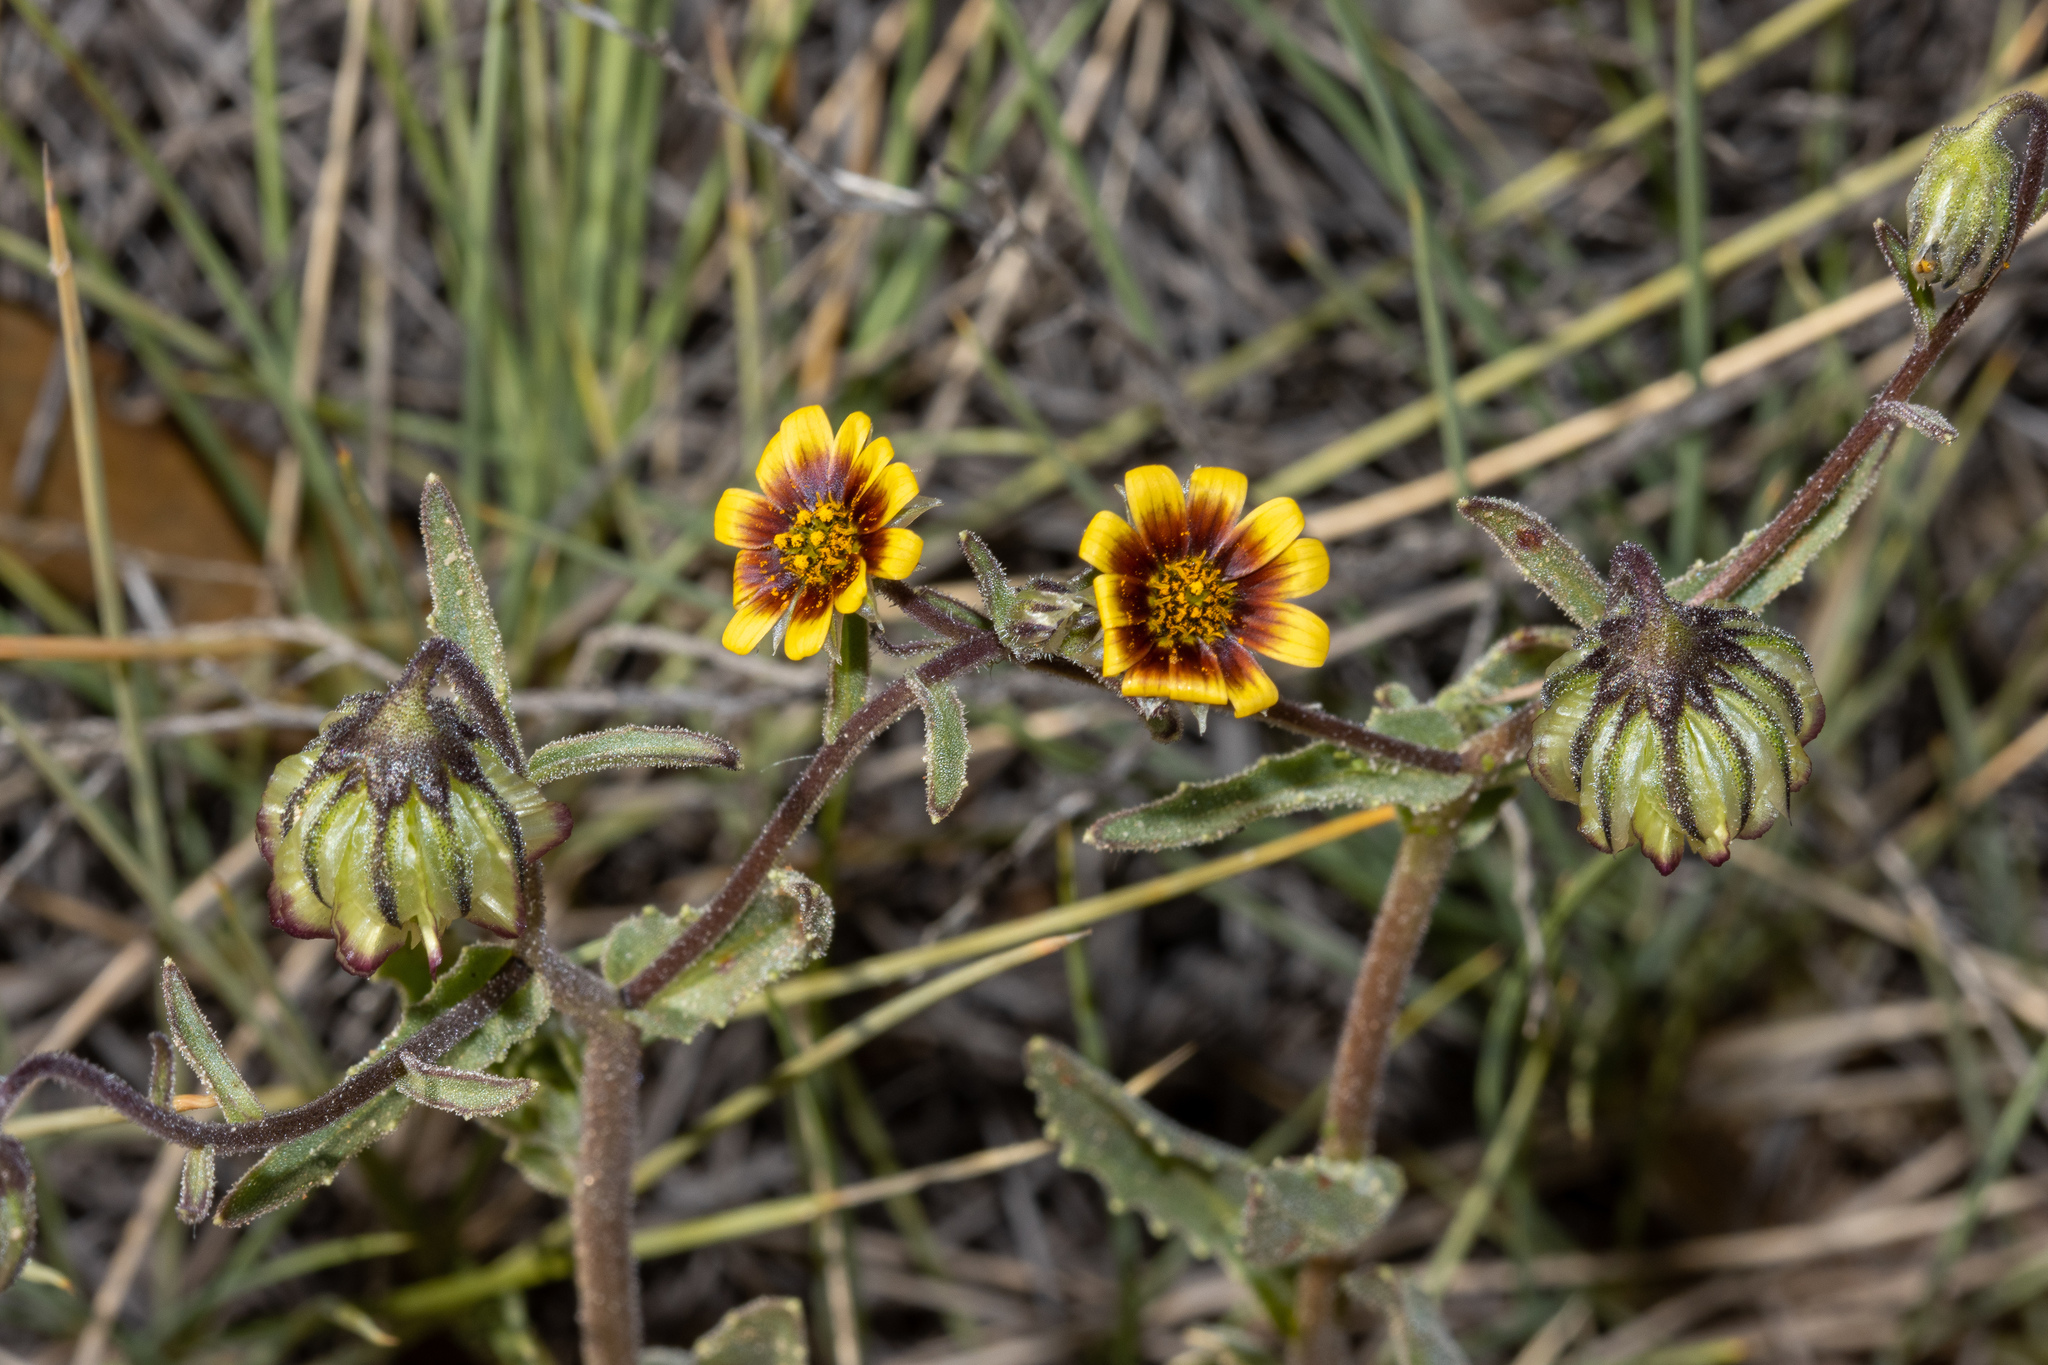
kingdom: Plantae
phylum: Tracheophyta
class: Magnoliopsida
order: Asterales
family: Asteraceae
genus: Osteospermum
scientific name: Osteospermum monstrosum
